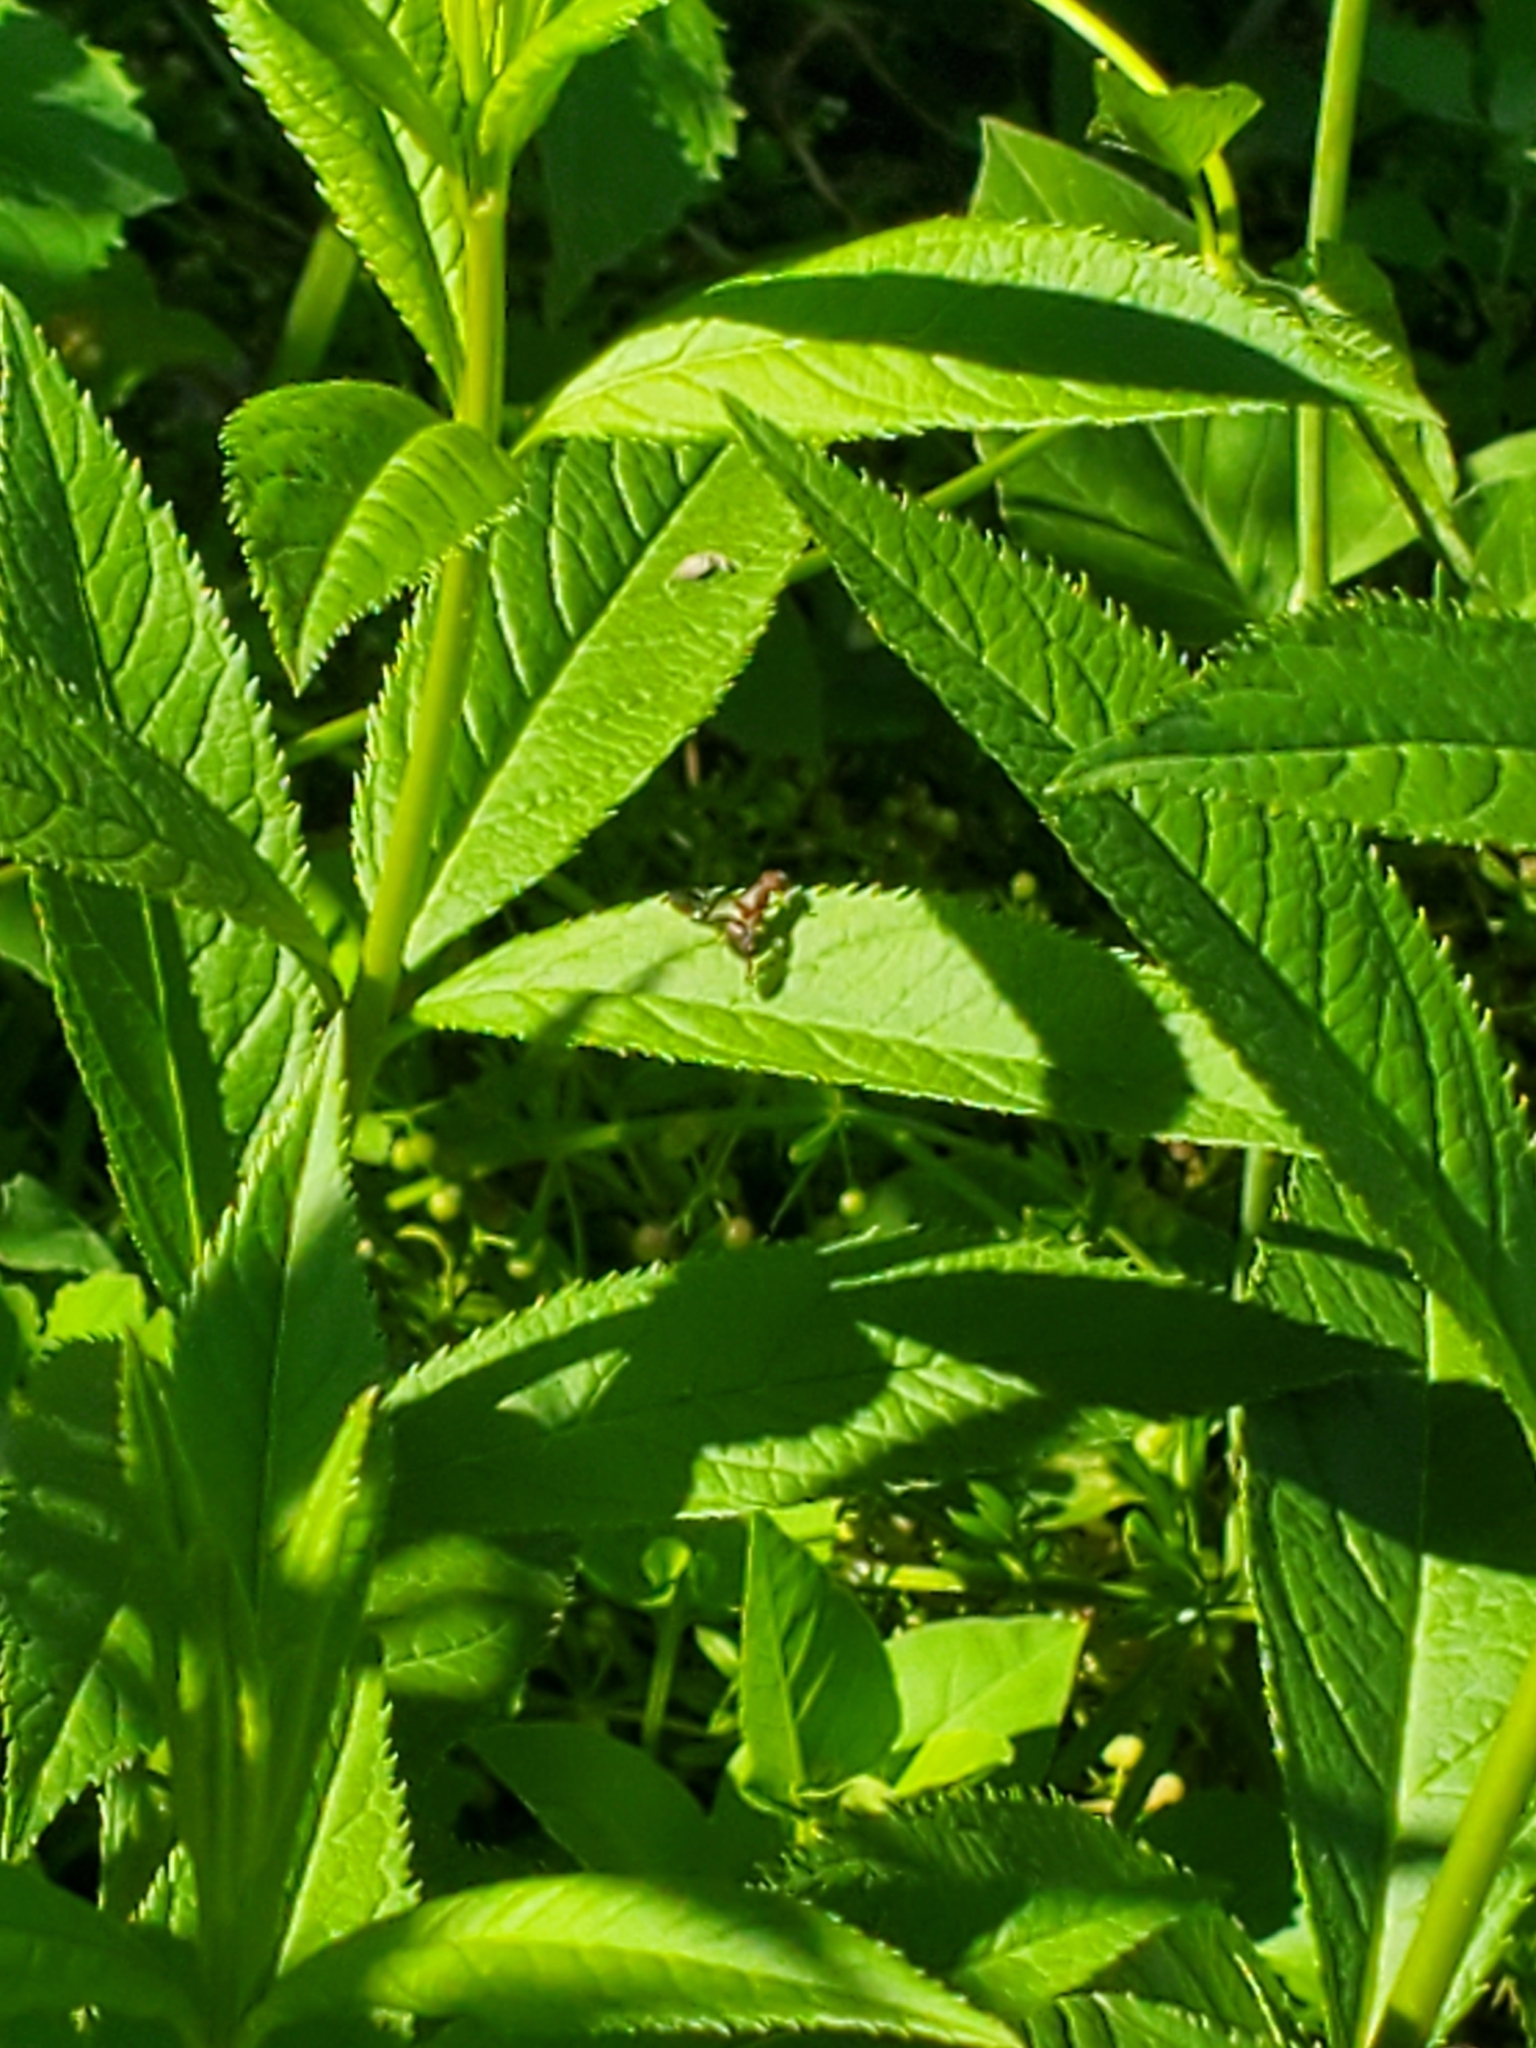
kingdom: Animalia
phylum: Arthropoda
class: Insecta
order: Diptera
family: Ulidiidae
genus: Delphinia
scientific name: Delphinia picta
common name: Common picture-winged fly
